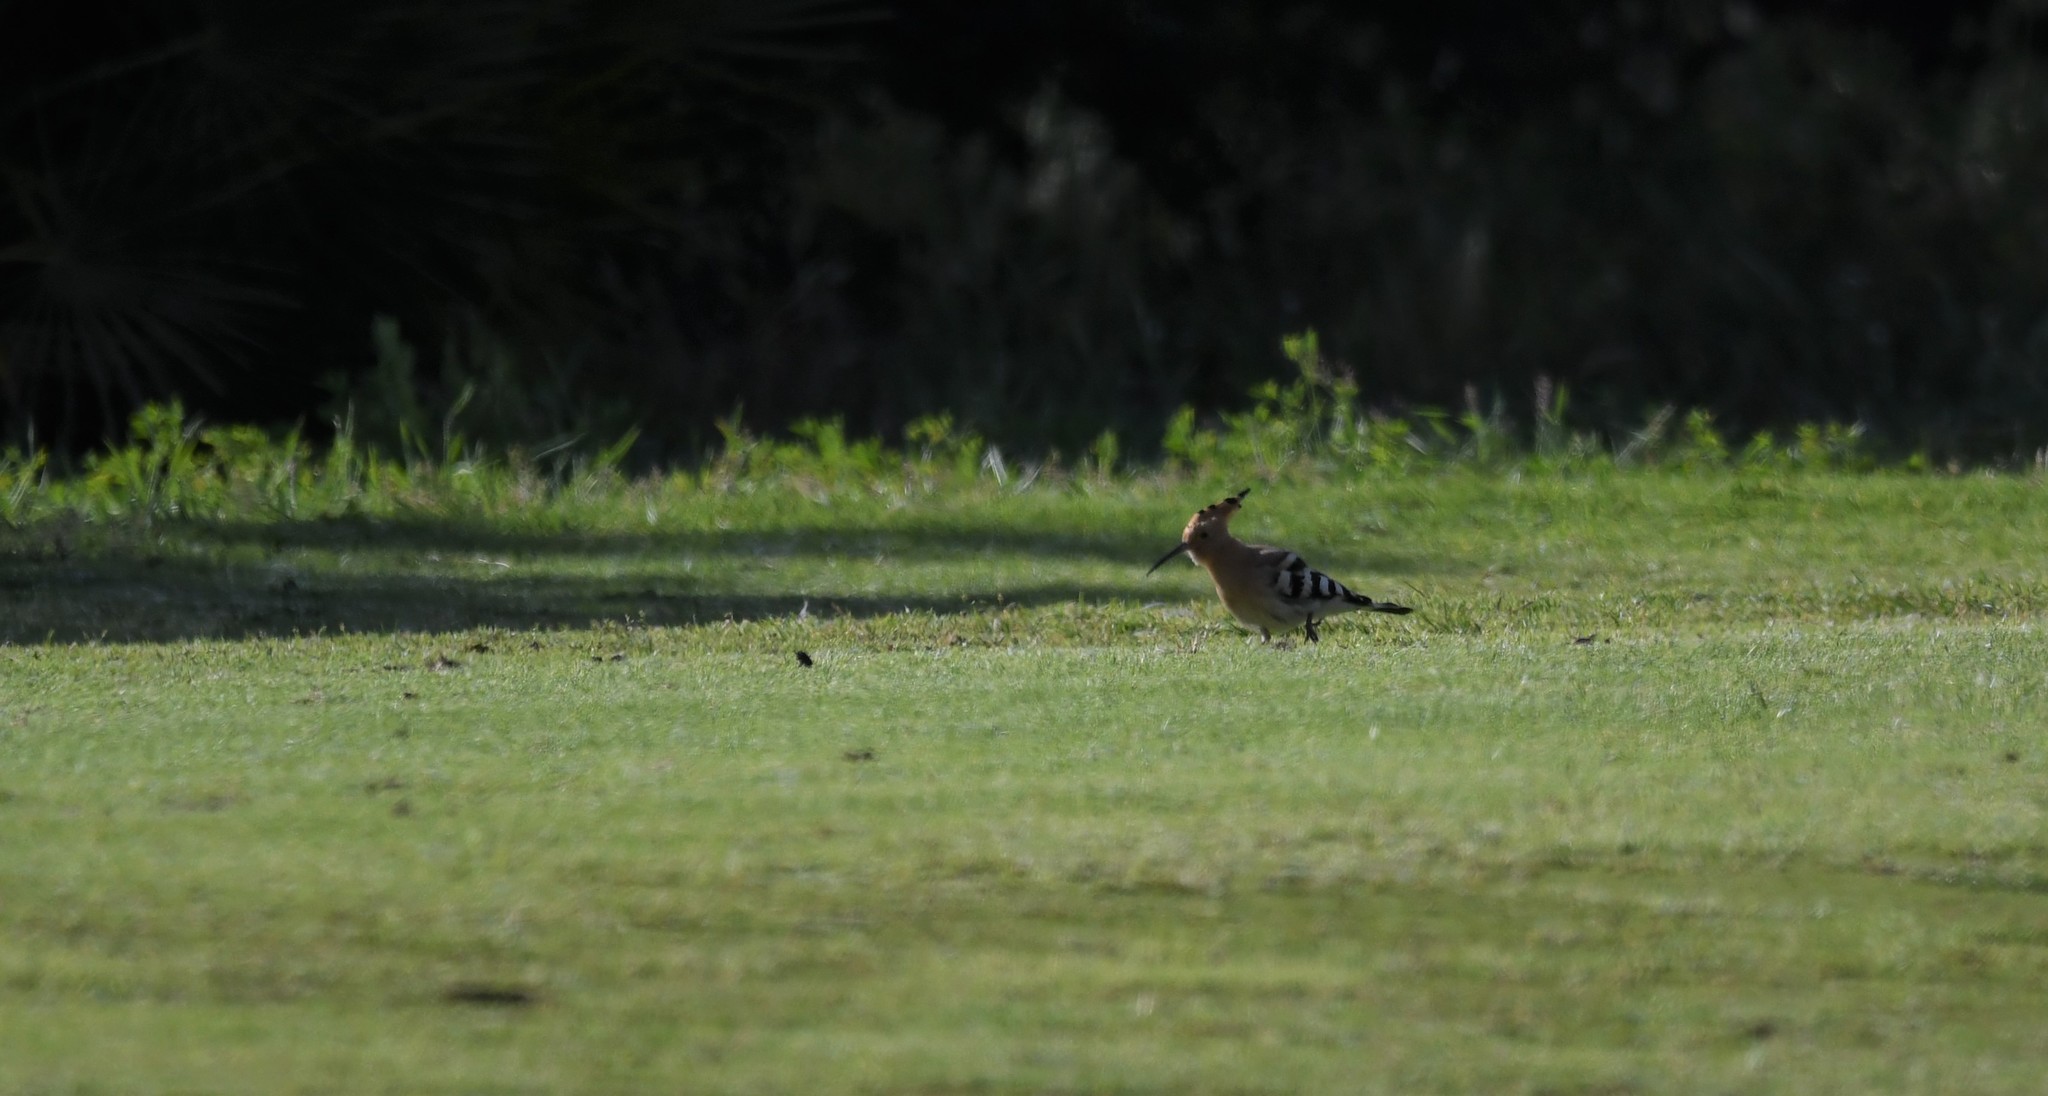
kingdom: Animalia
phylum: Chordata
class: Aves
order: Bucerotiformes
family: Upupidae
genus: Upupa
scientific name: Upupa epops
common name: Eurasian hoopoe
